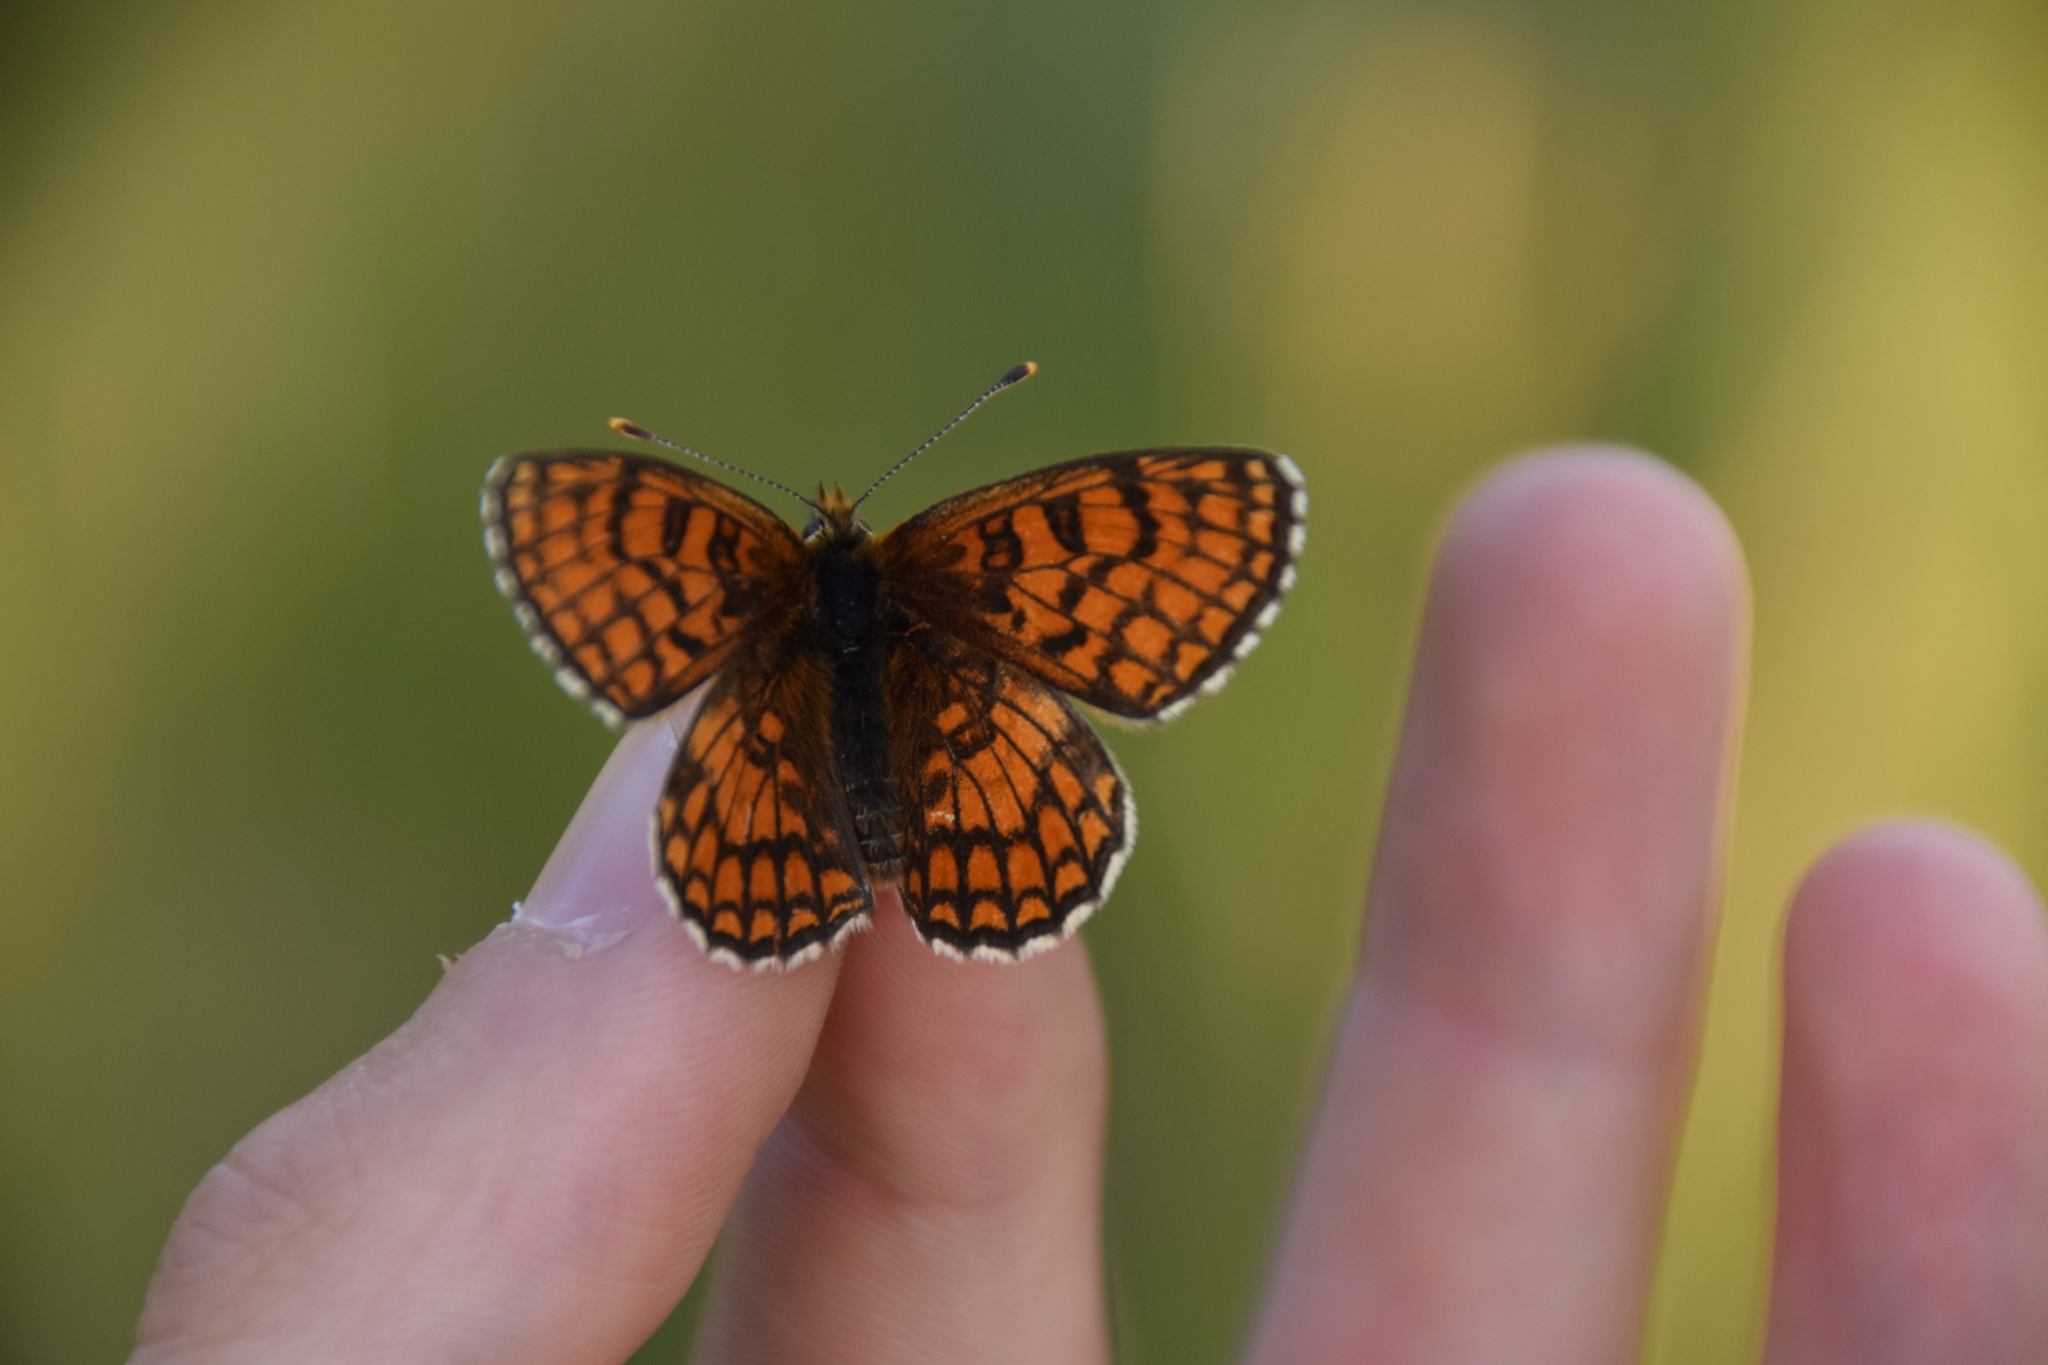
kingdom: Animalia
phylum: Arthropoda
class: Insecta
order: Lepidoptera
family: Nymphalidae
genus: Mellicta
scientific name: Mellicta parthenoides
